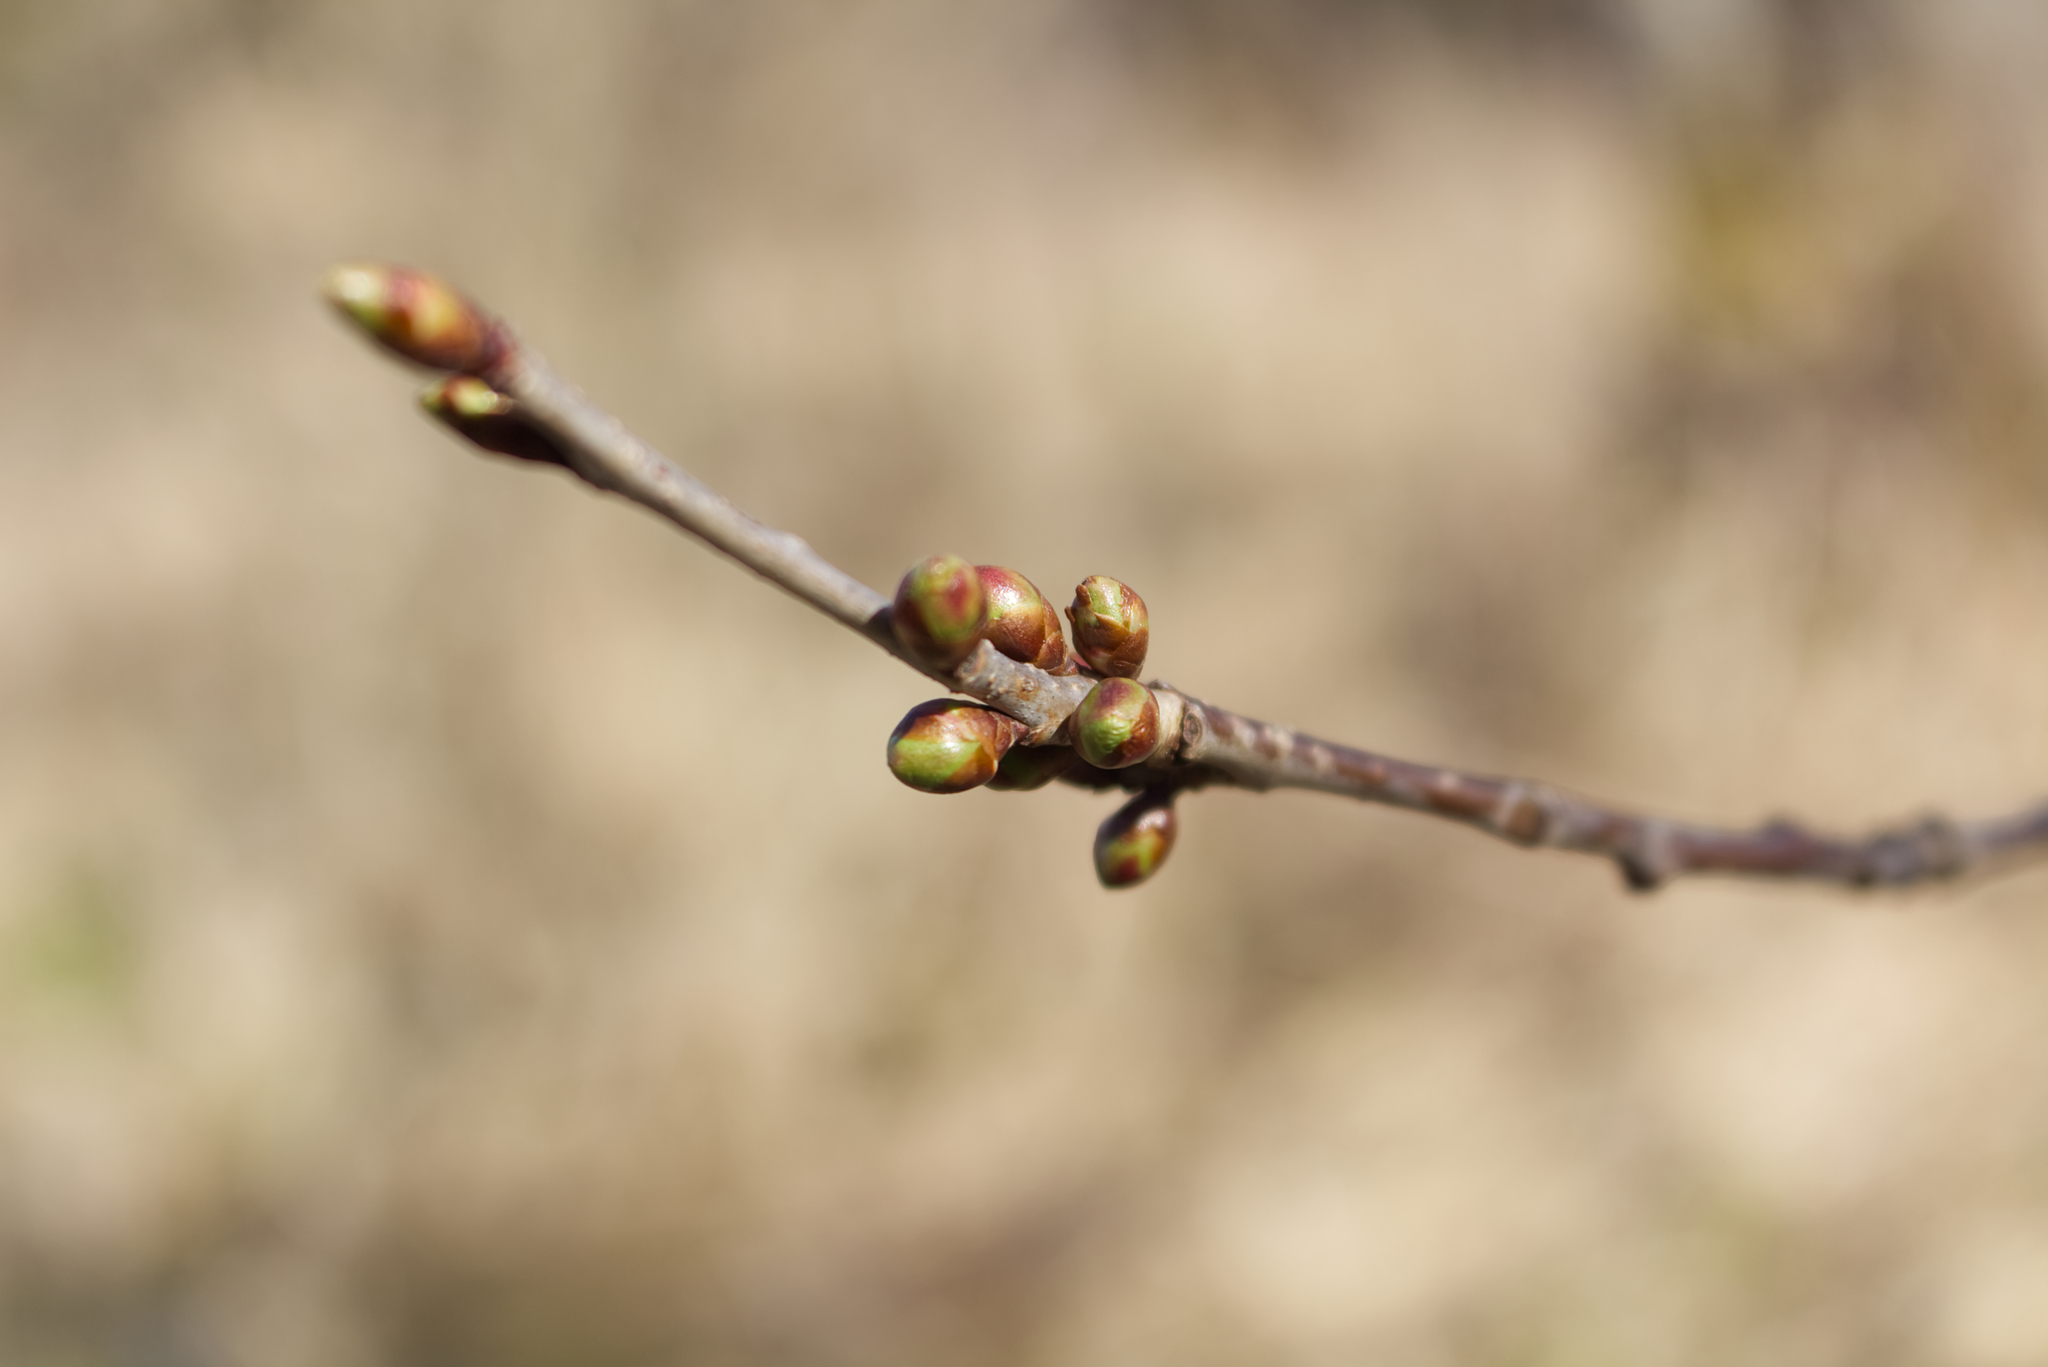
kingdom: Plantae
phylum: Tracheophyta
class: Magnoliopsida
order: Rosales
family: Rosaceae
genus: Prunus
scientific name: Prunus avium
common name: Sweet cherry
